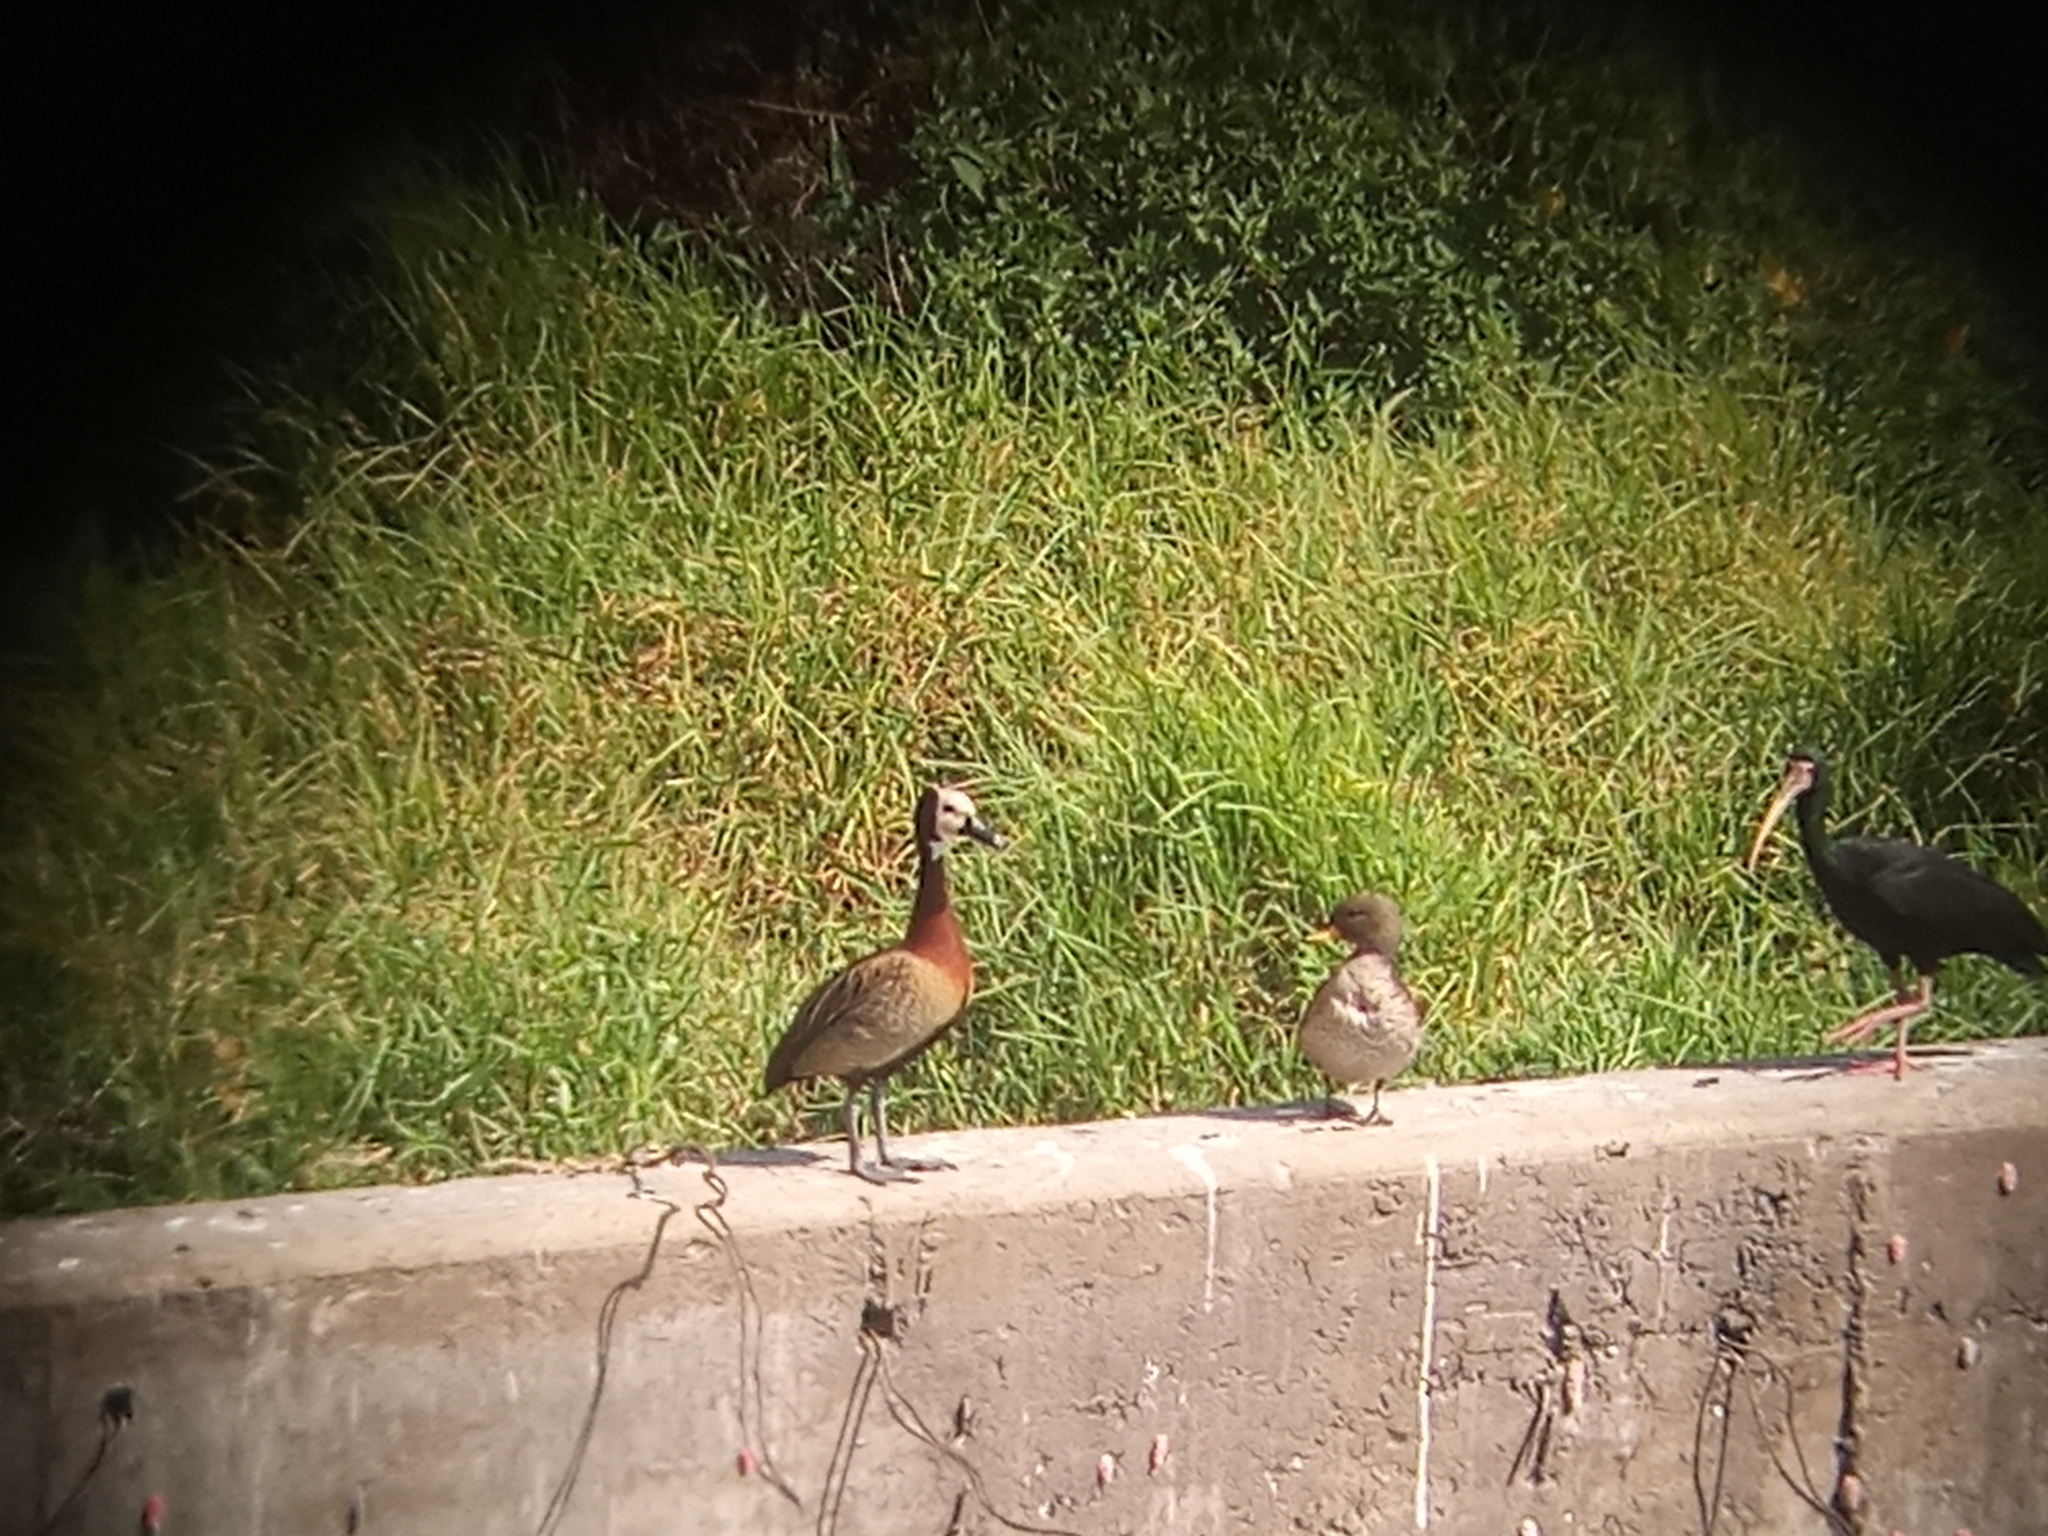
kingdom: Animalia
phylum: Chordata
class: Aves
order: Anseriformes
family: Anatidae
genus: Anas
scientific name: Anas flavirostris
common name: Yellow-billed teal
